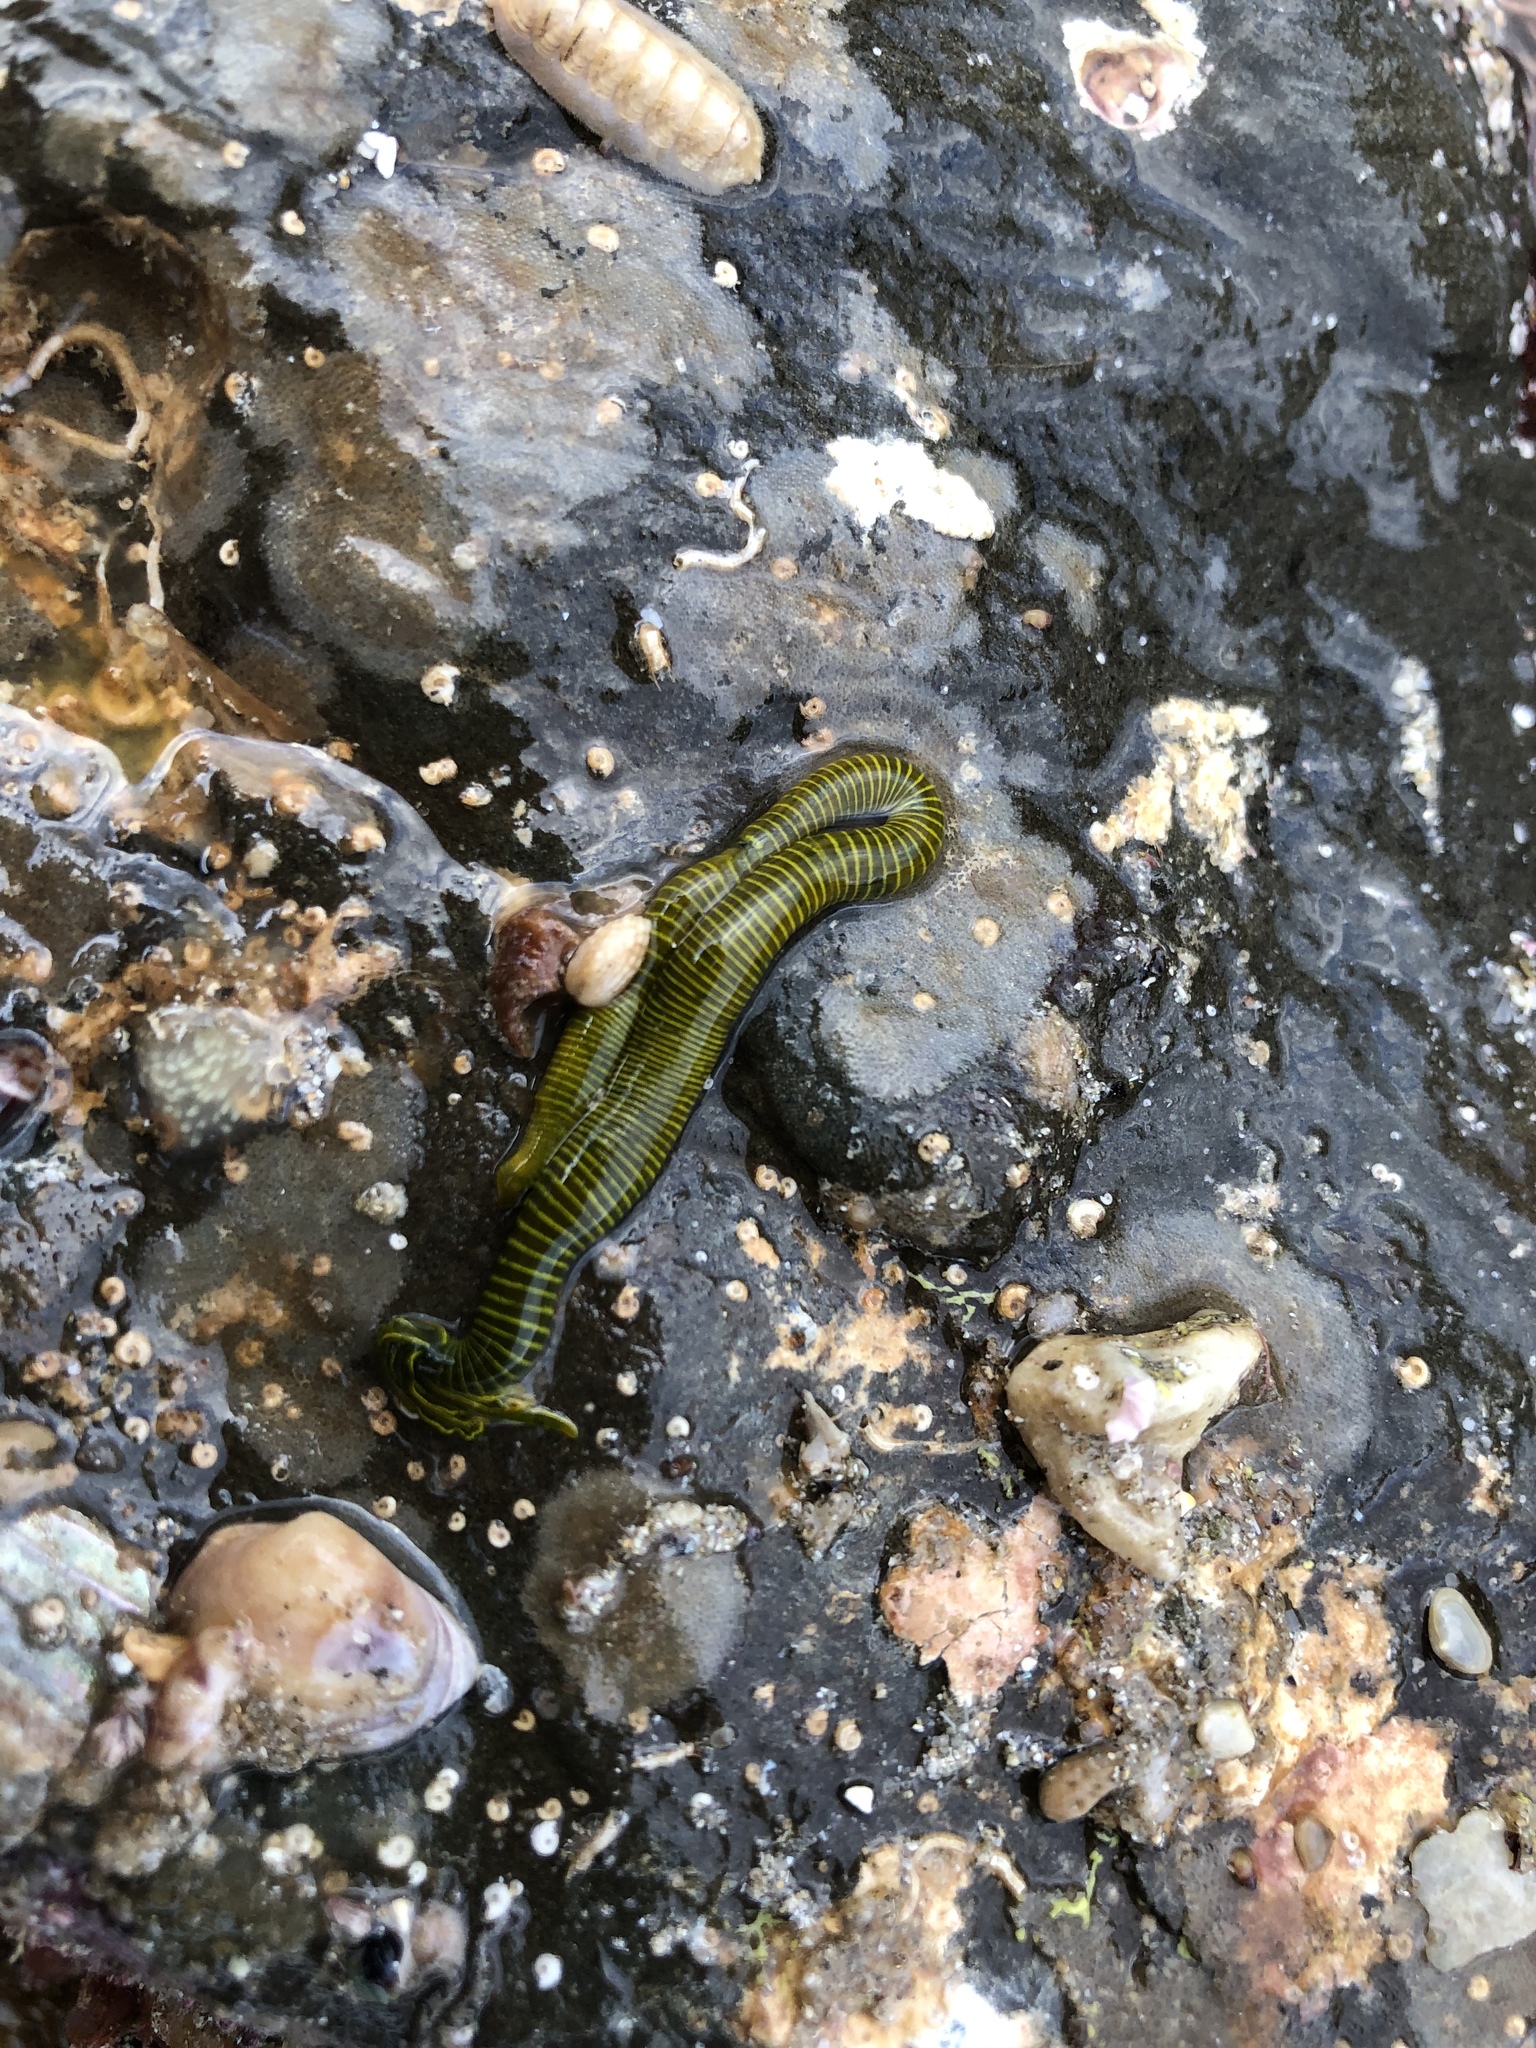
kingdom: Animalia
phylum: Annelida
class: Polychaeta
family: Acrocirridae
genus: Acrocirrus
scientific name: Acrocirrus
